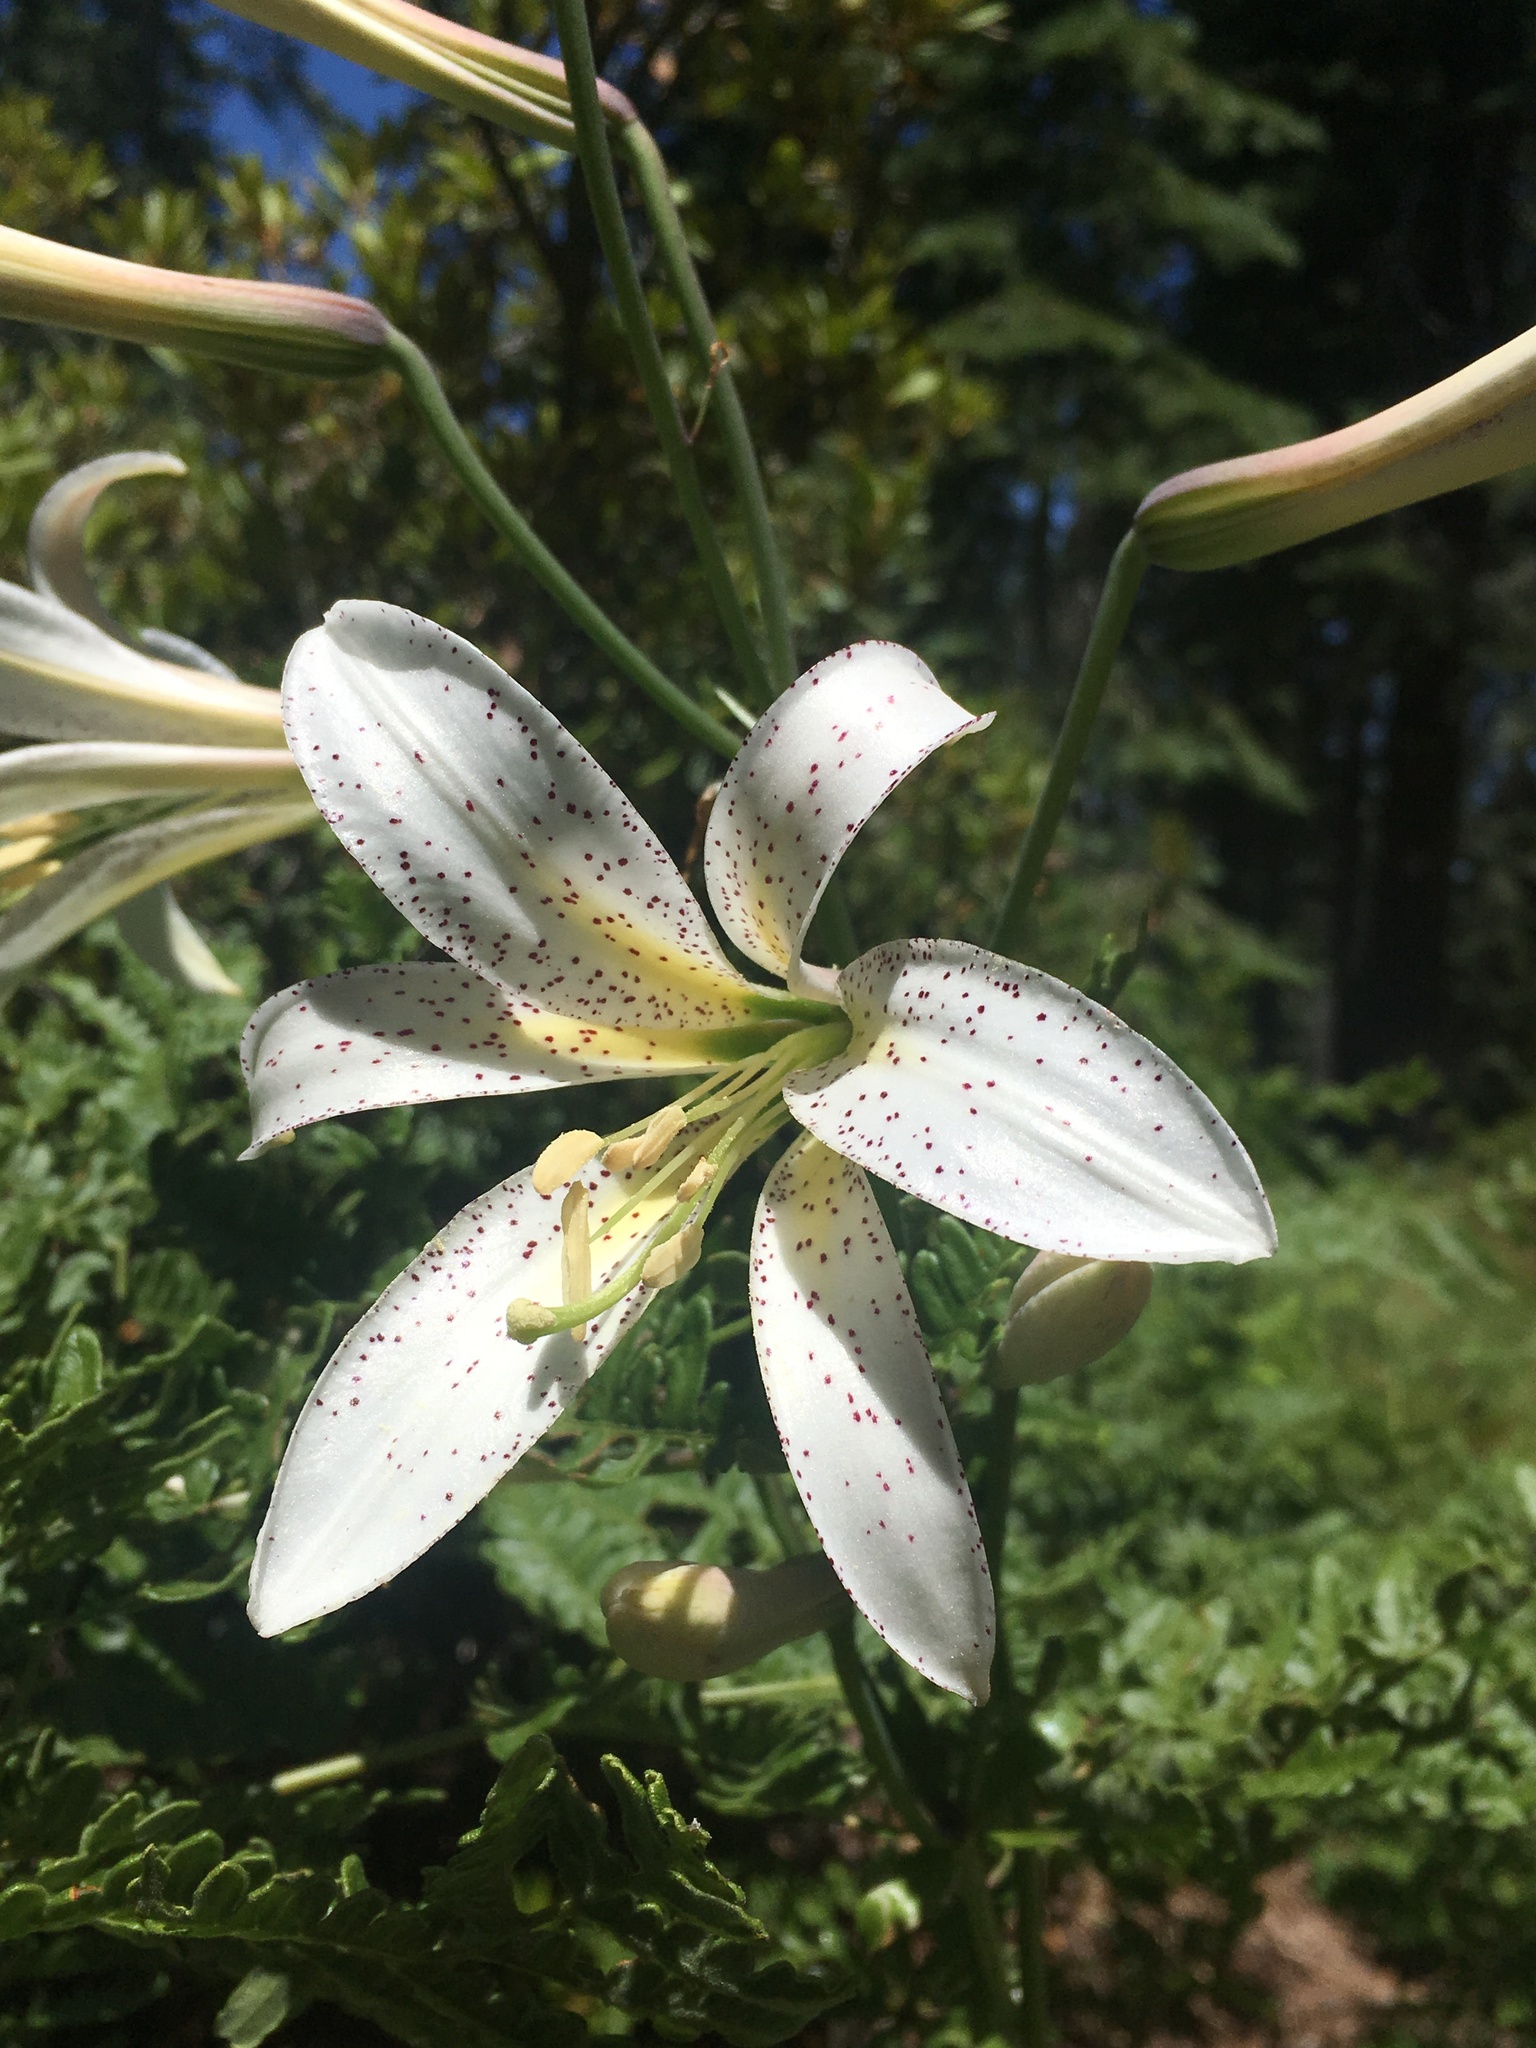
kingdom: Plantae
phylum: Tracheophyta
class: Liliopsida
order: Liliales
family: Liliaceae
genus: Lilium
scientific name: Lilium washingtonianum
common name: Washington lily
